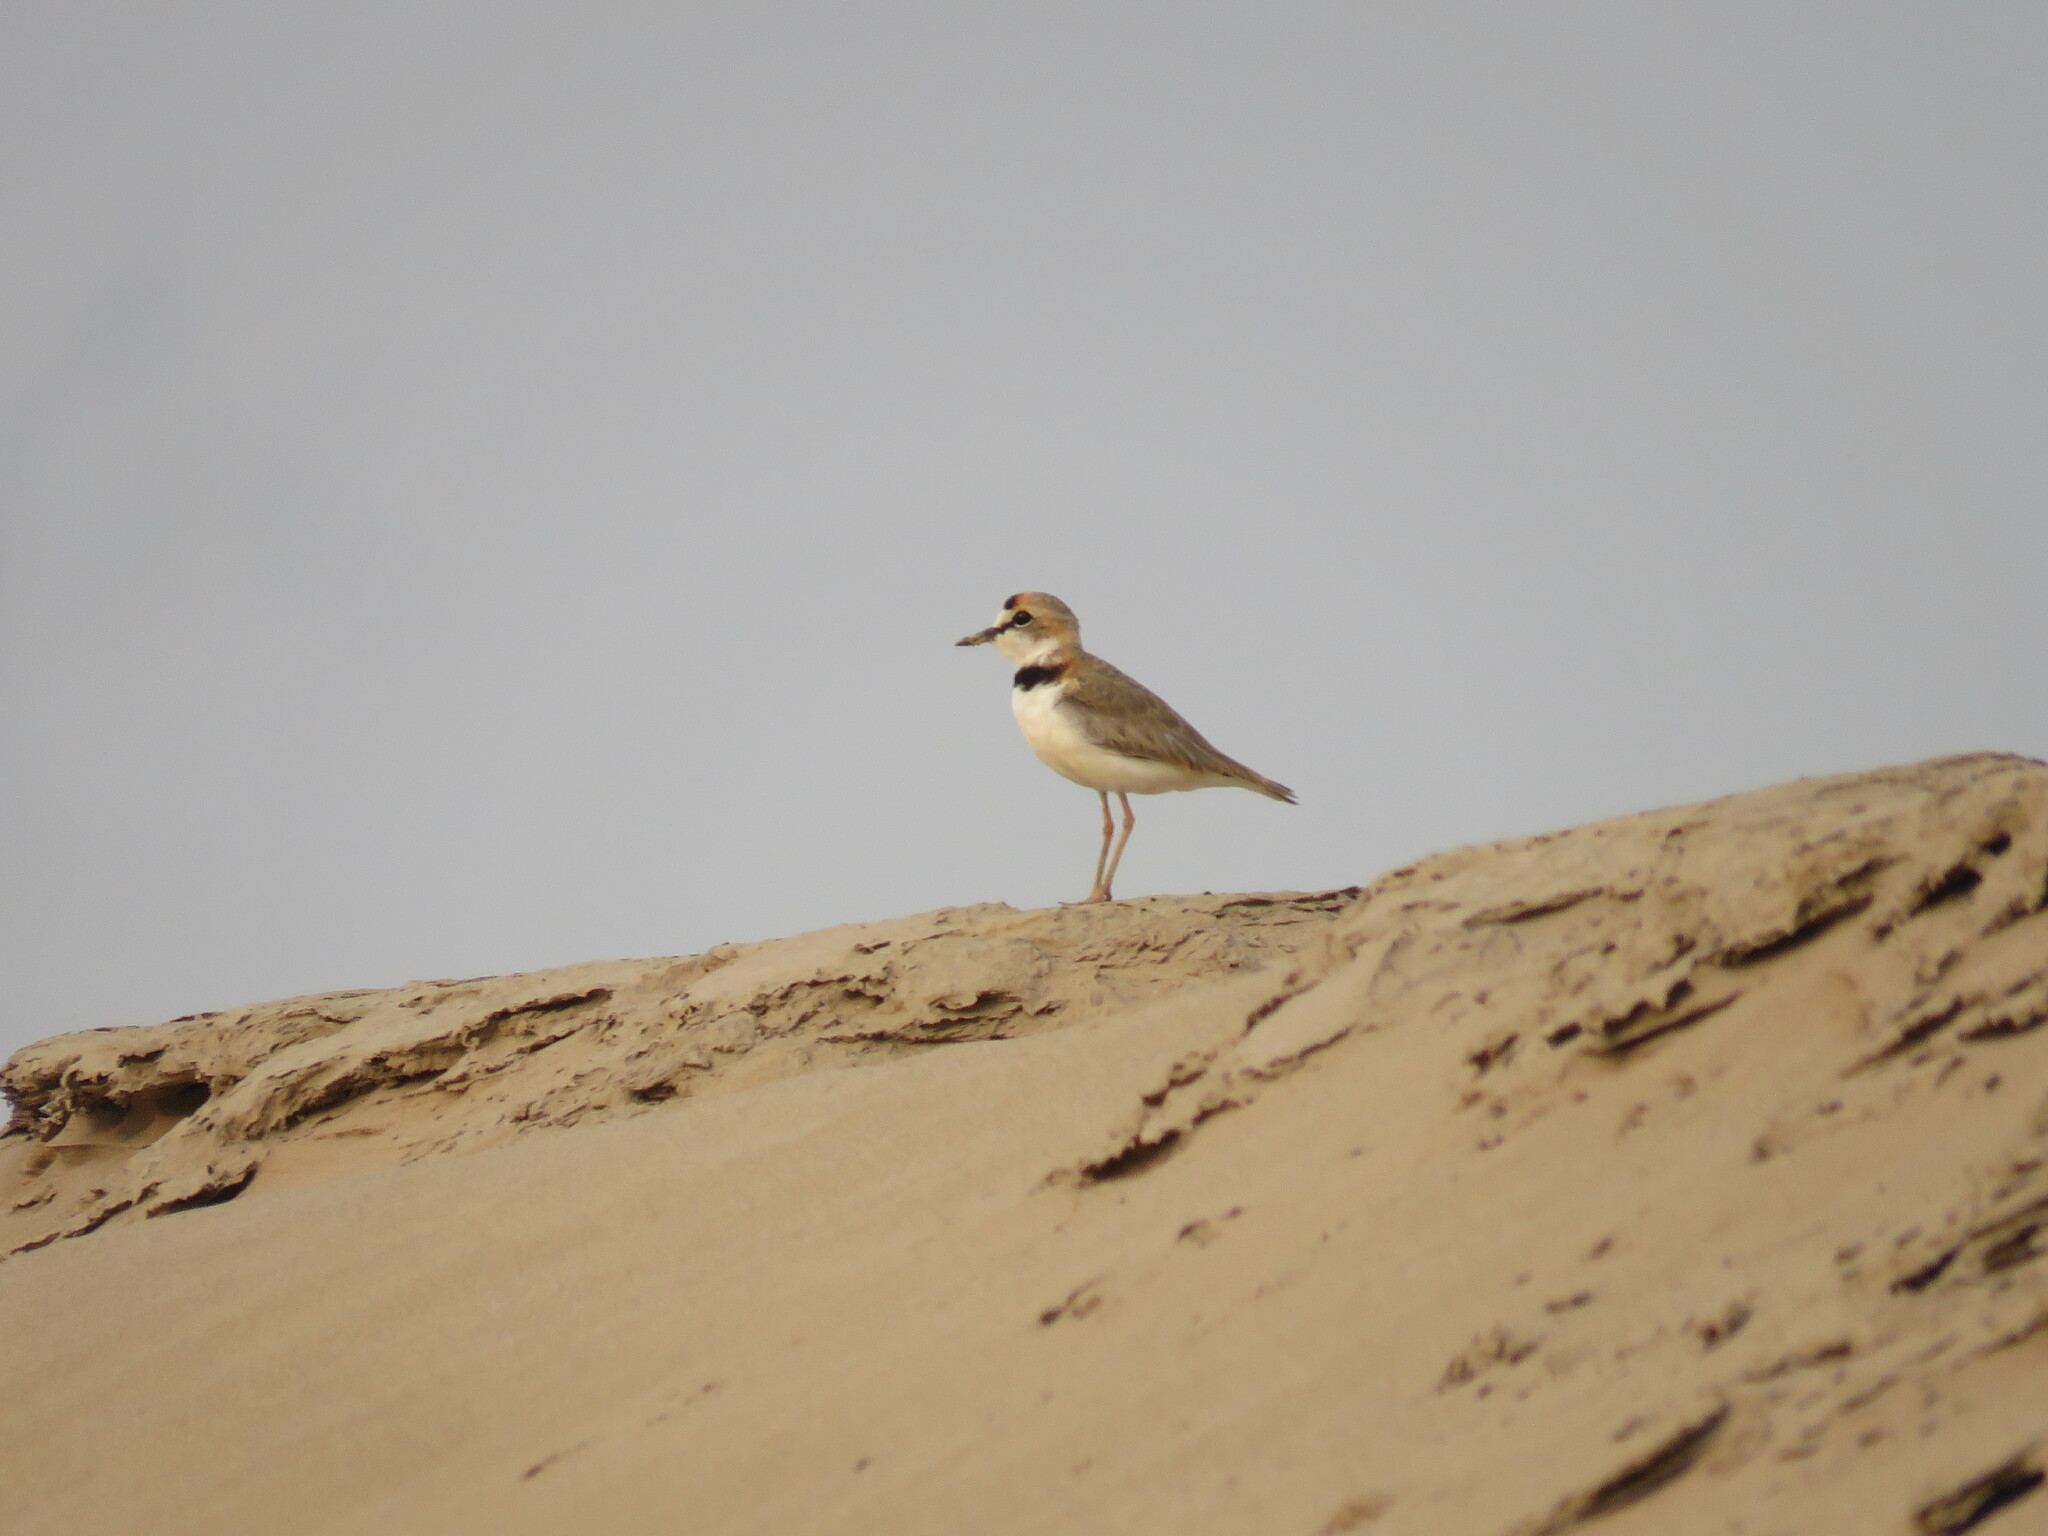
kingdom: Animalia
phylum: Chordata
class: Aves
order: Charadriiformes
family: Charadriidae
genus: Anarhynchus
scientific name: Anarhynchus
